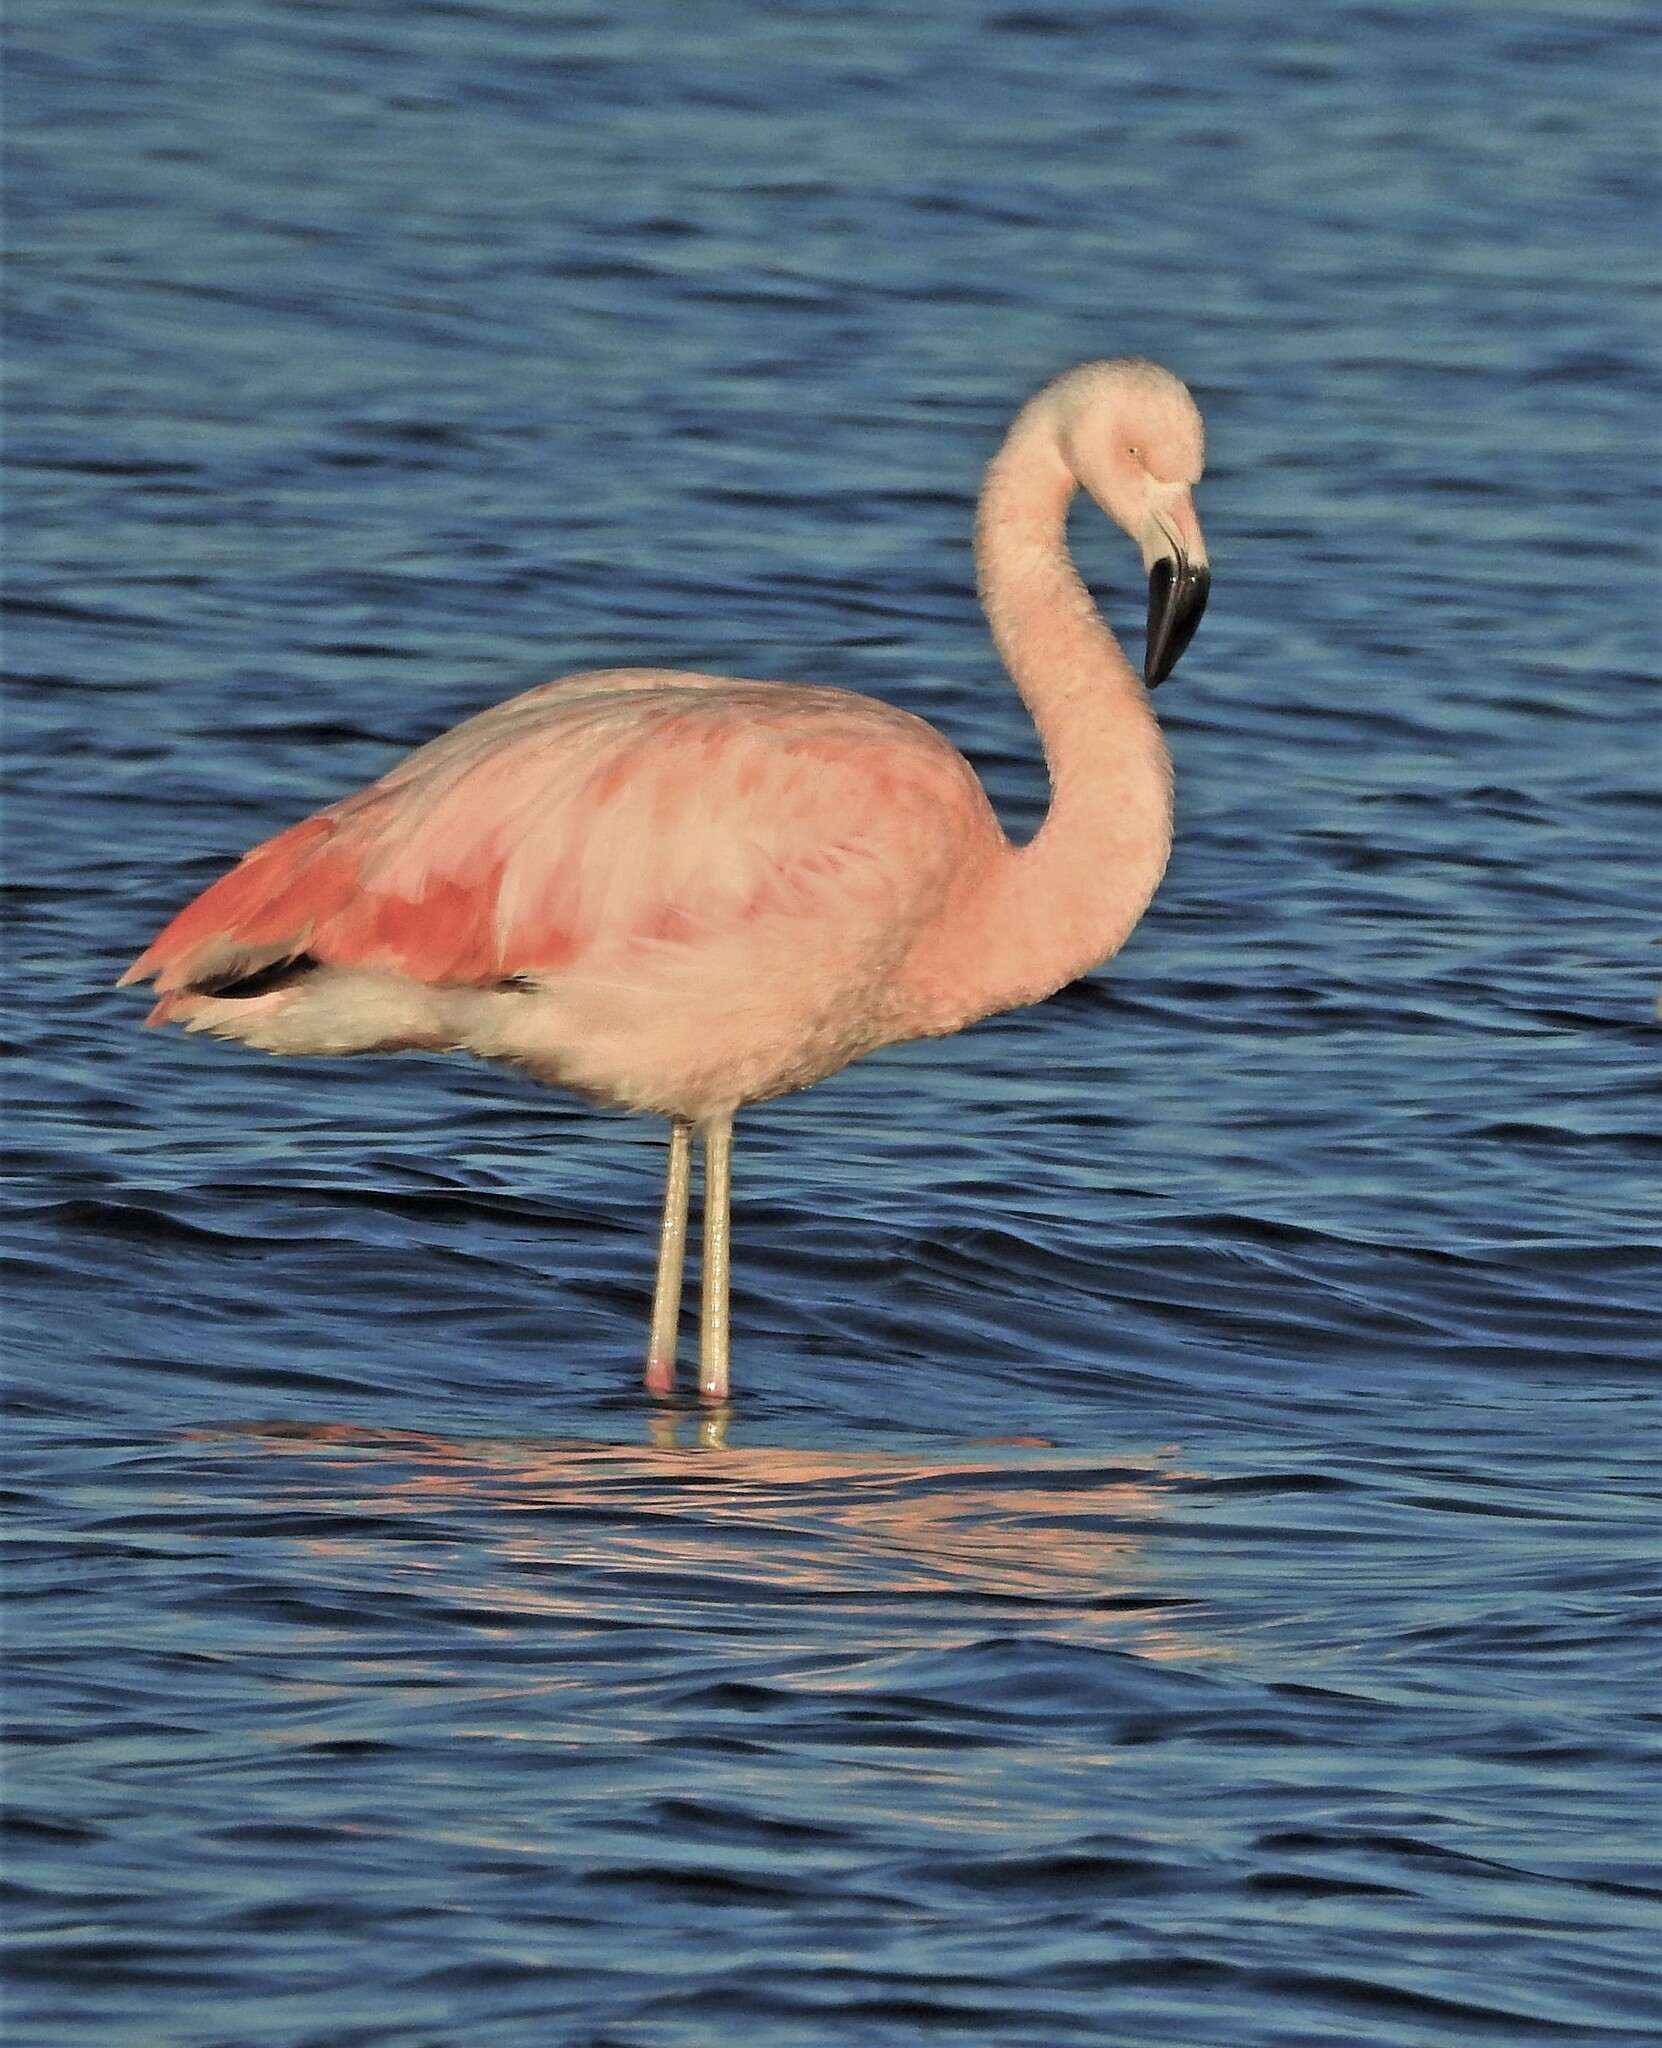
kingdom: Animalia
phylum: Chordata
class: Aves
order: Phoenicopteriformes
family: Phoenicopteridae
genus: Phoenicopterus
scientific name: Phoenicopterus chilensis
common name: Chilean flamingo
